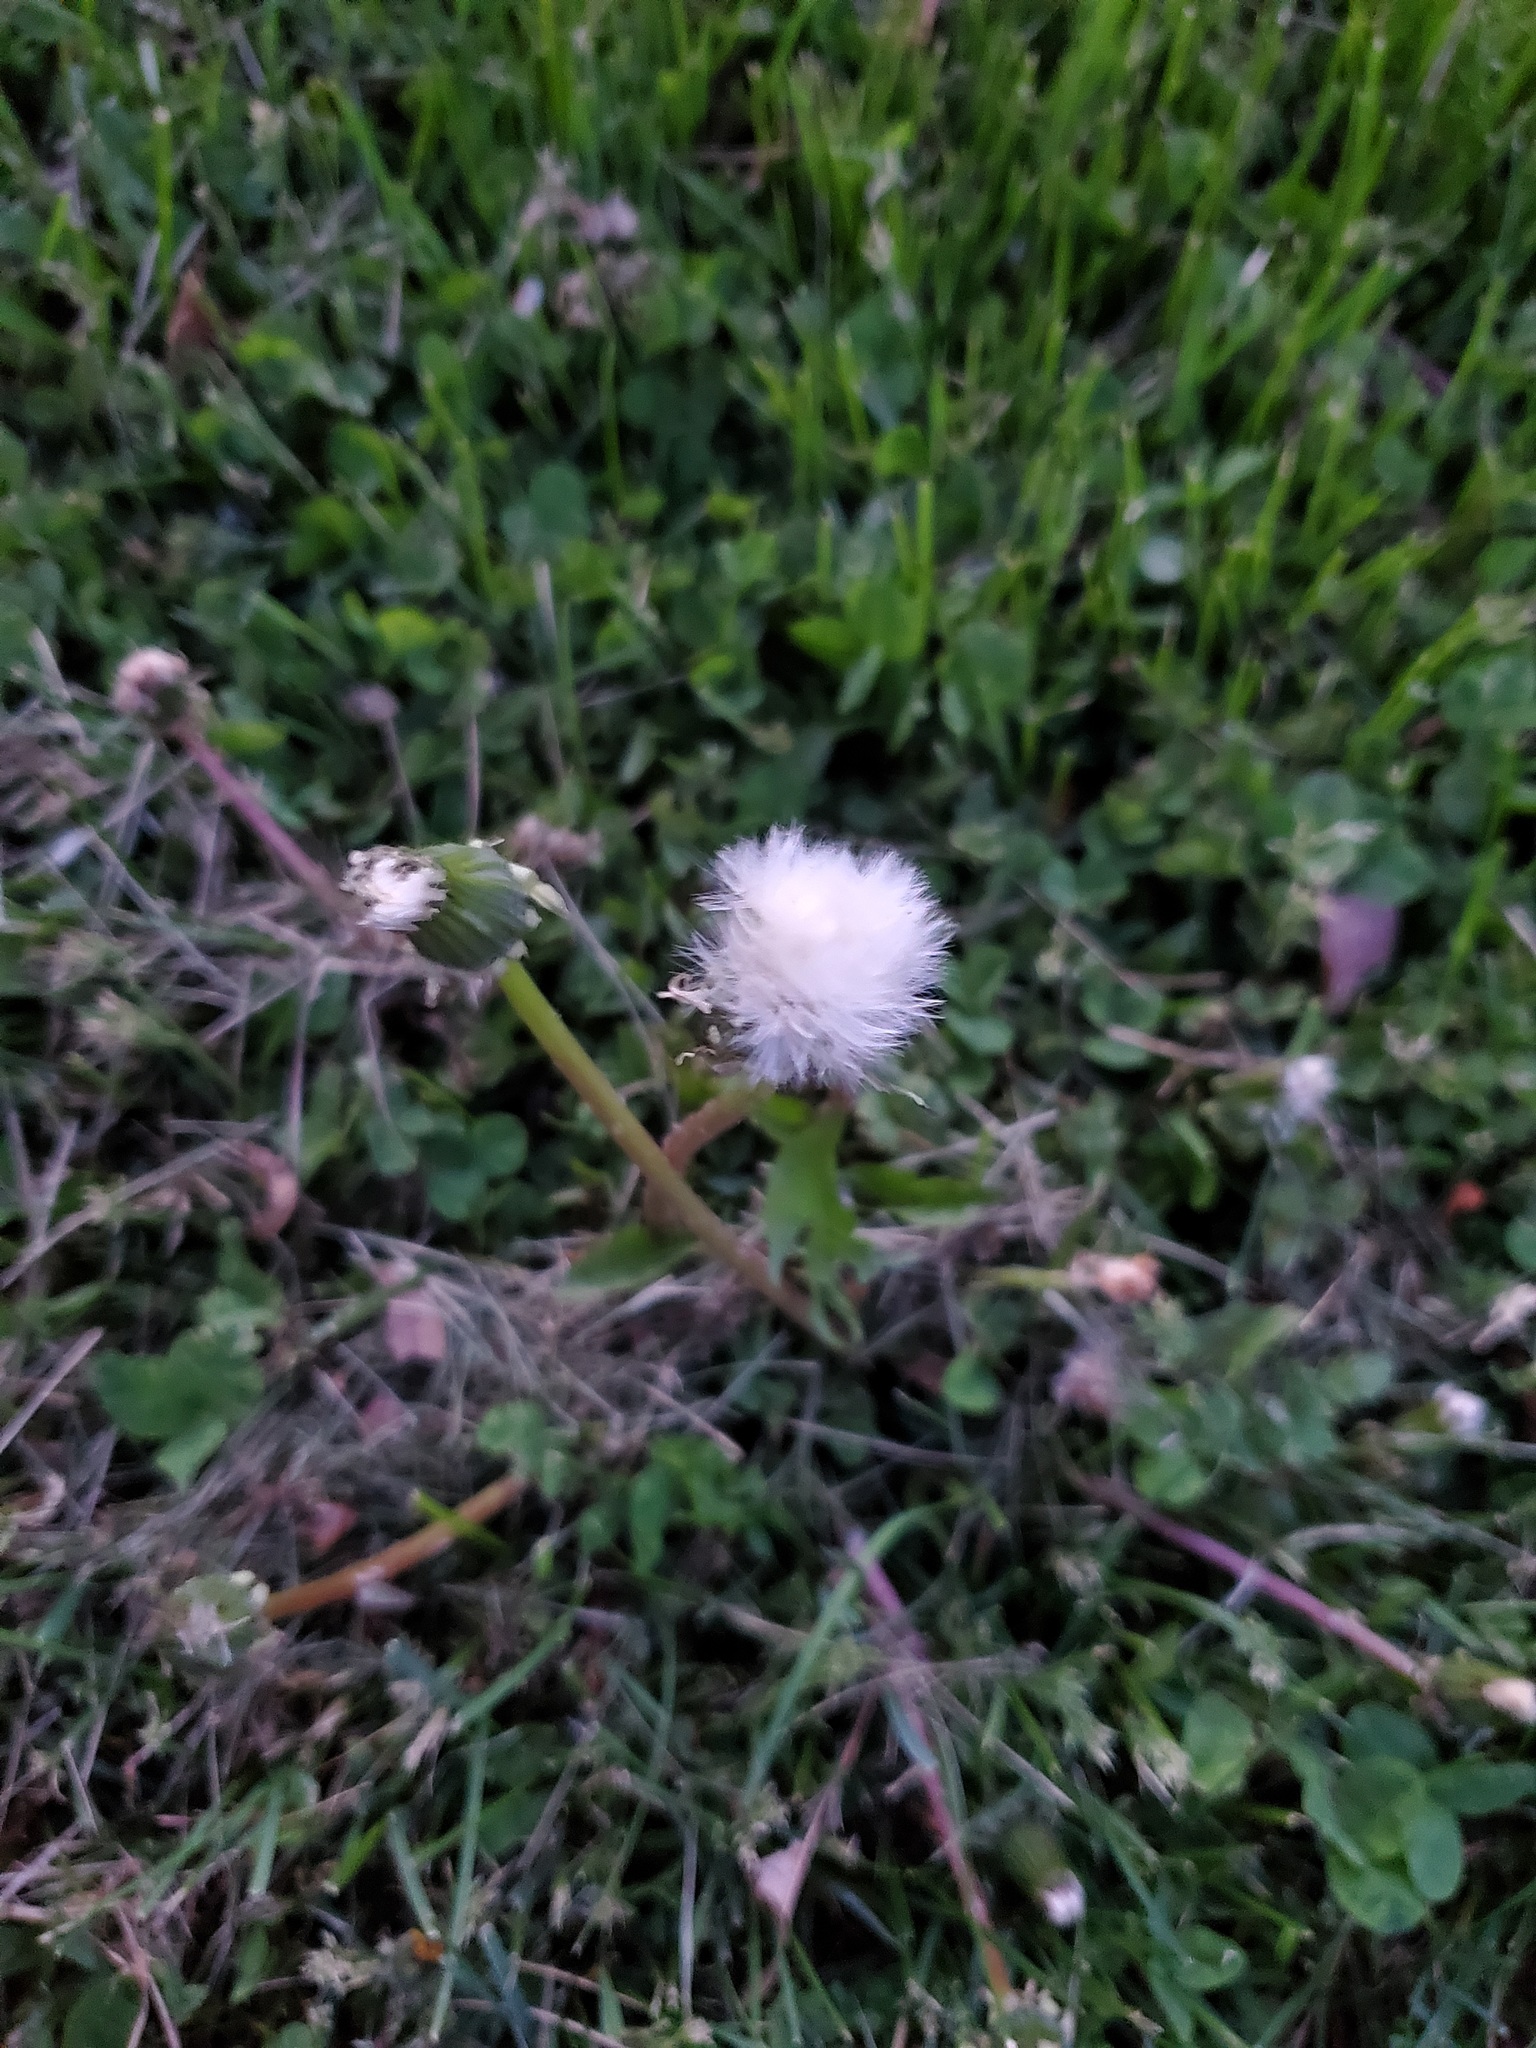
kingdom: Plantae
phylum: Tracheophyta
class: Magnoliopsida
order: Asterales
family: Asteraceae
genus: Taraxacum
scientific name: Taraxacum officinale
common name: Common dandelion
